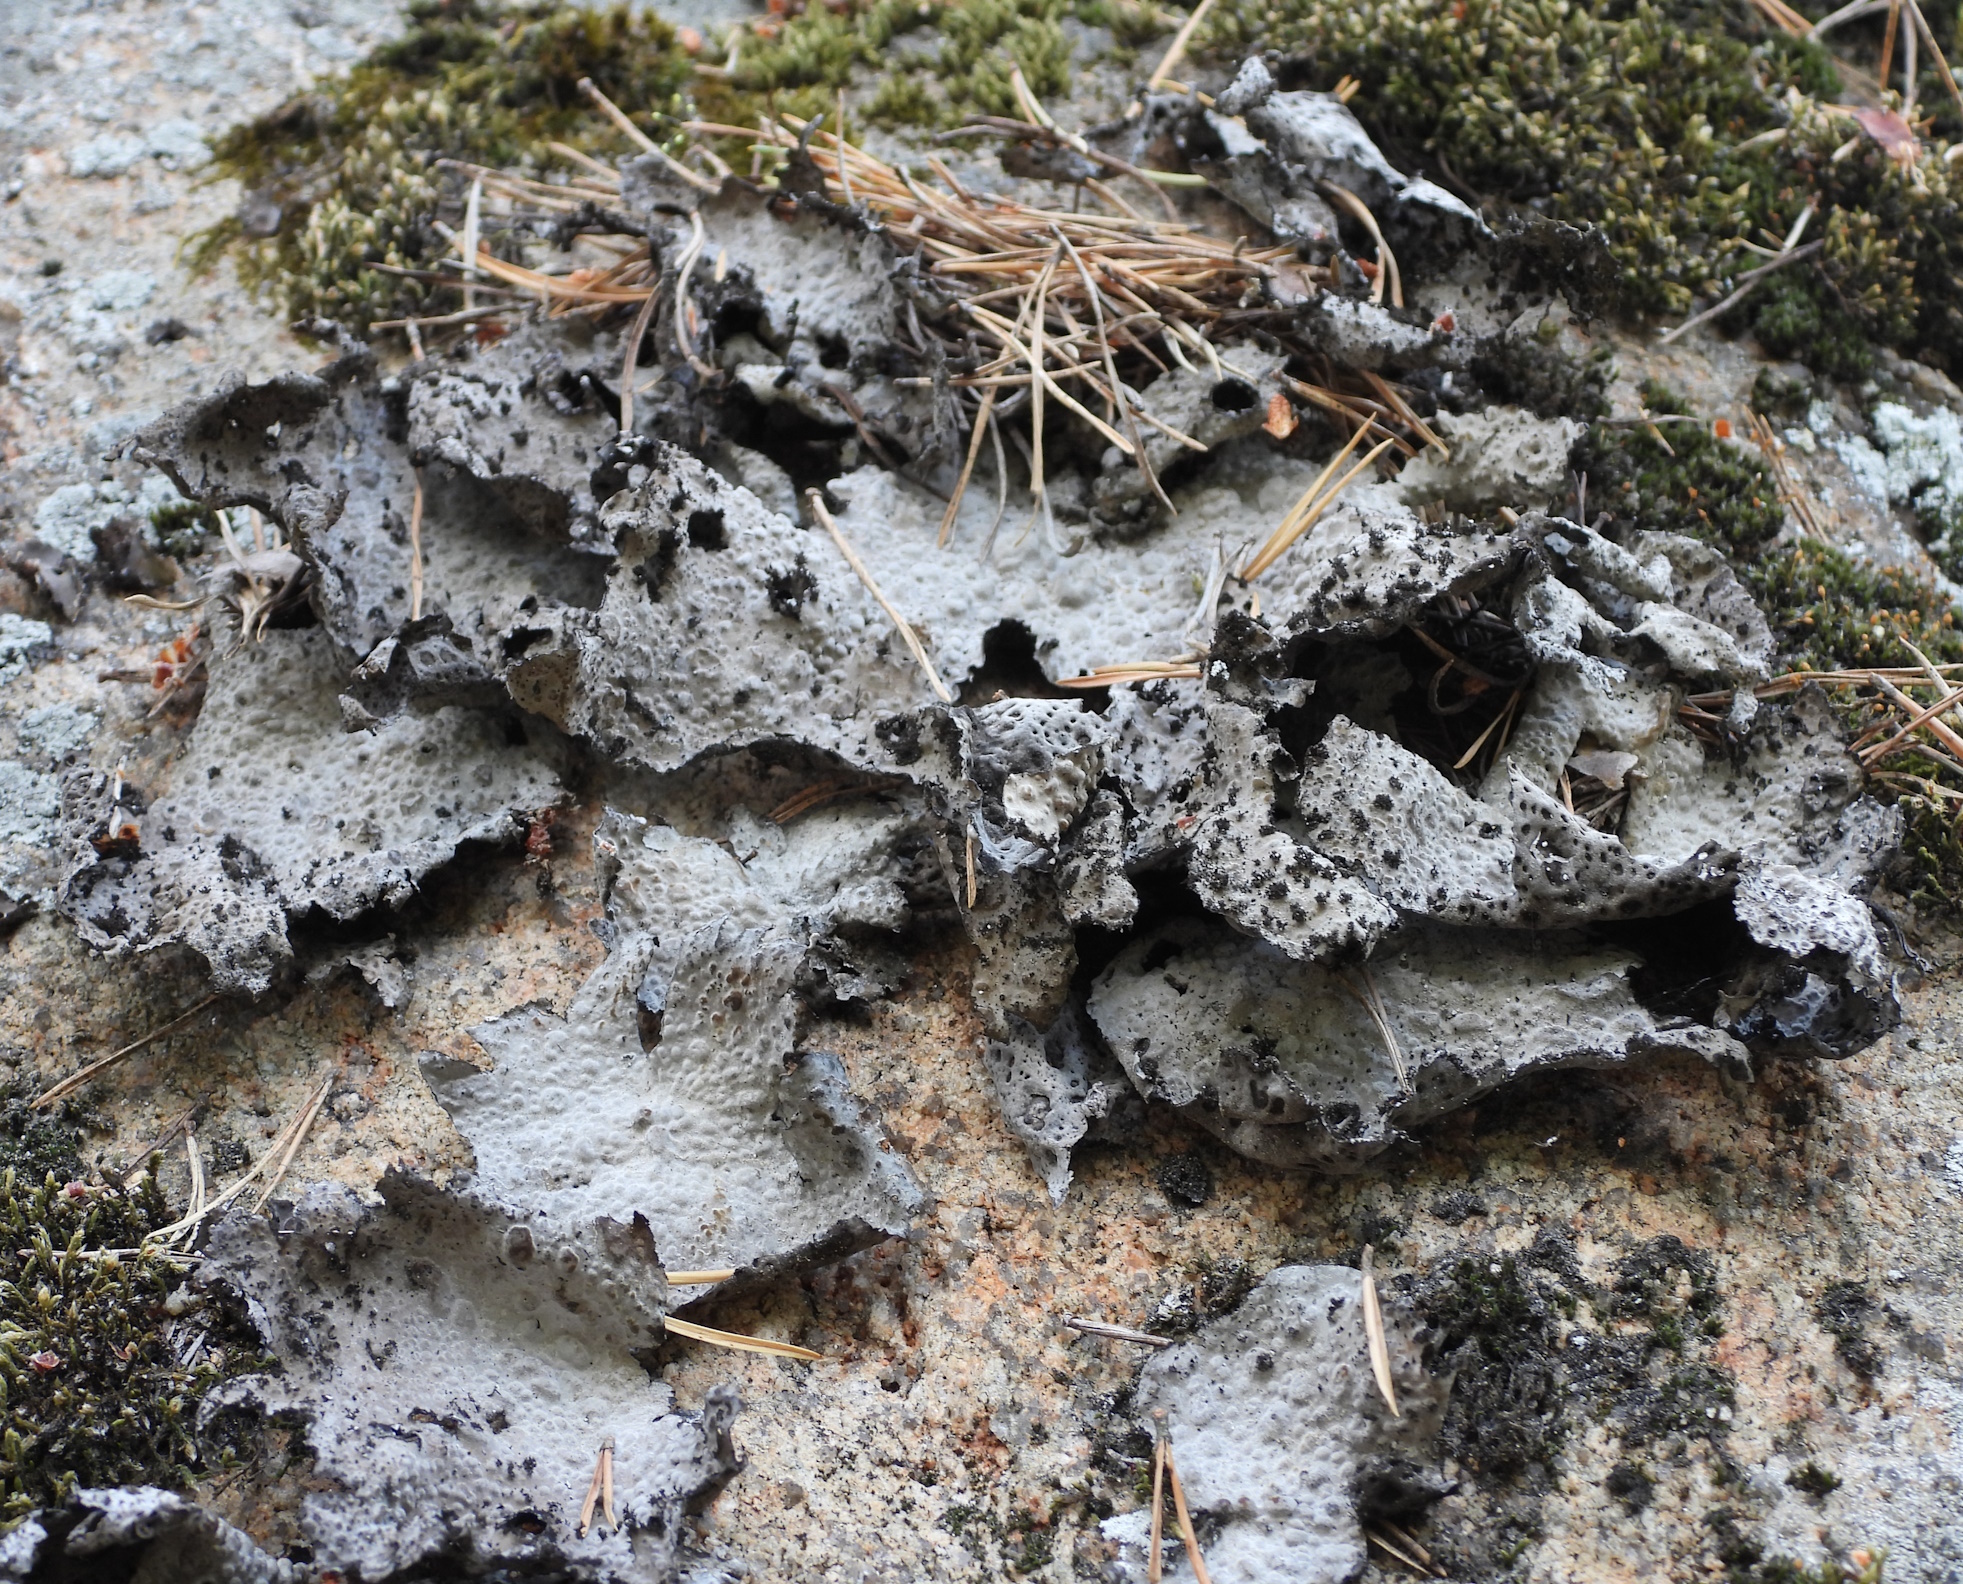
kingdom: Fungi
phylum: Ascomycota
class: Lecanoromycetes
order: Umbilicariales
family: Umbilicariaceae
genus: Lasallia
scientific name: Lasallia pustulata
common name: Blistered toadskin lichen
